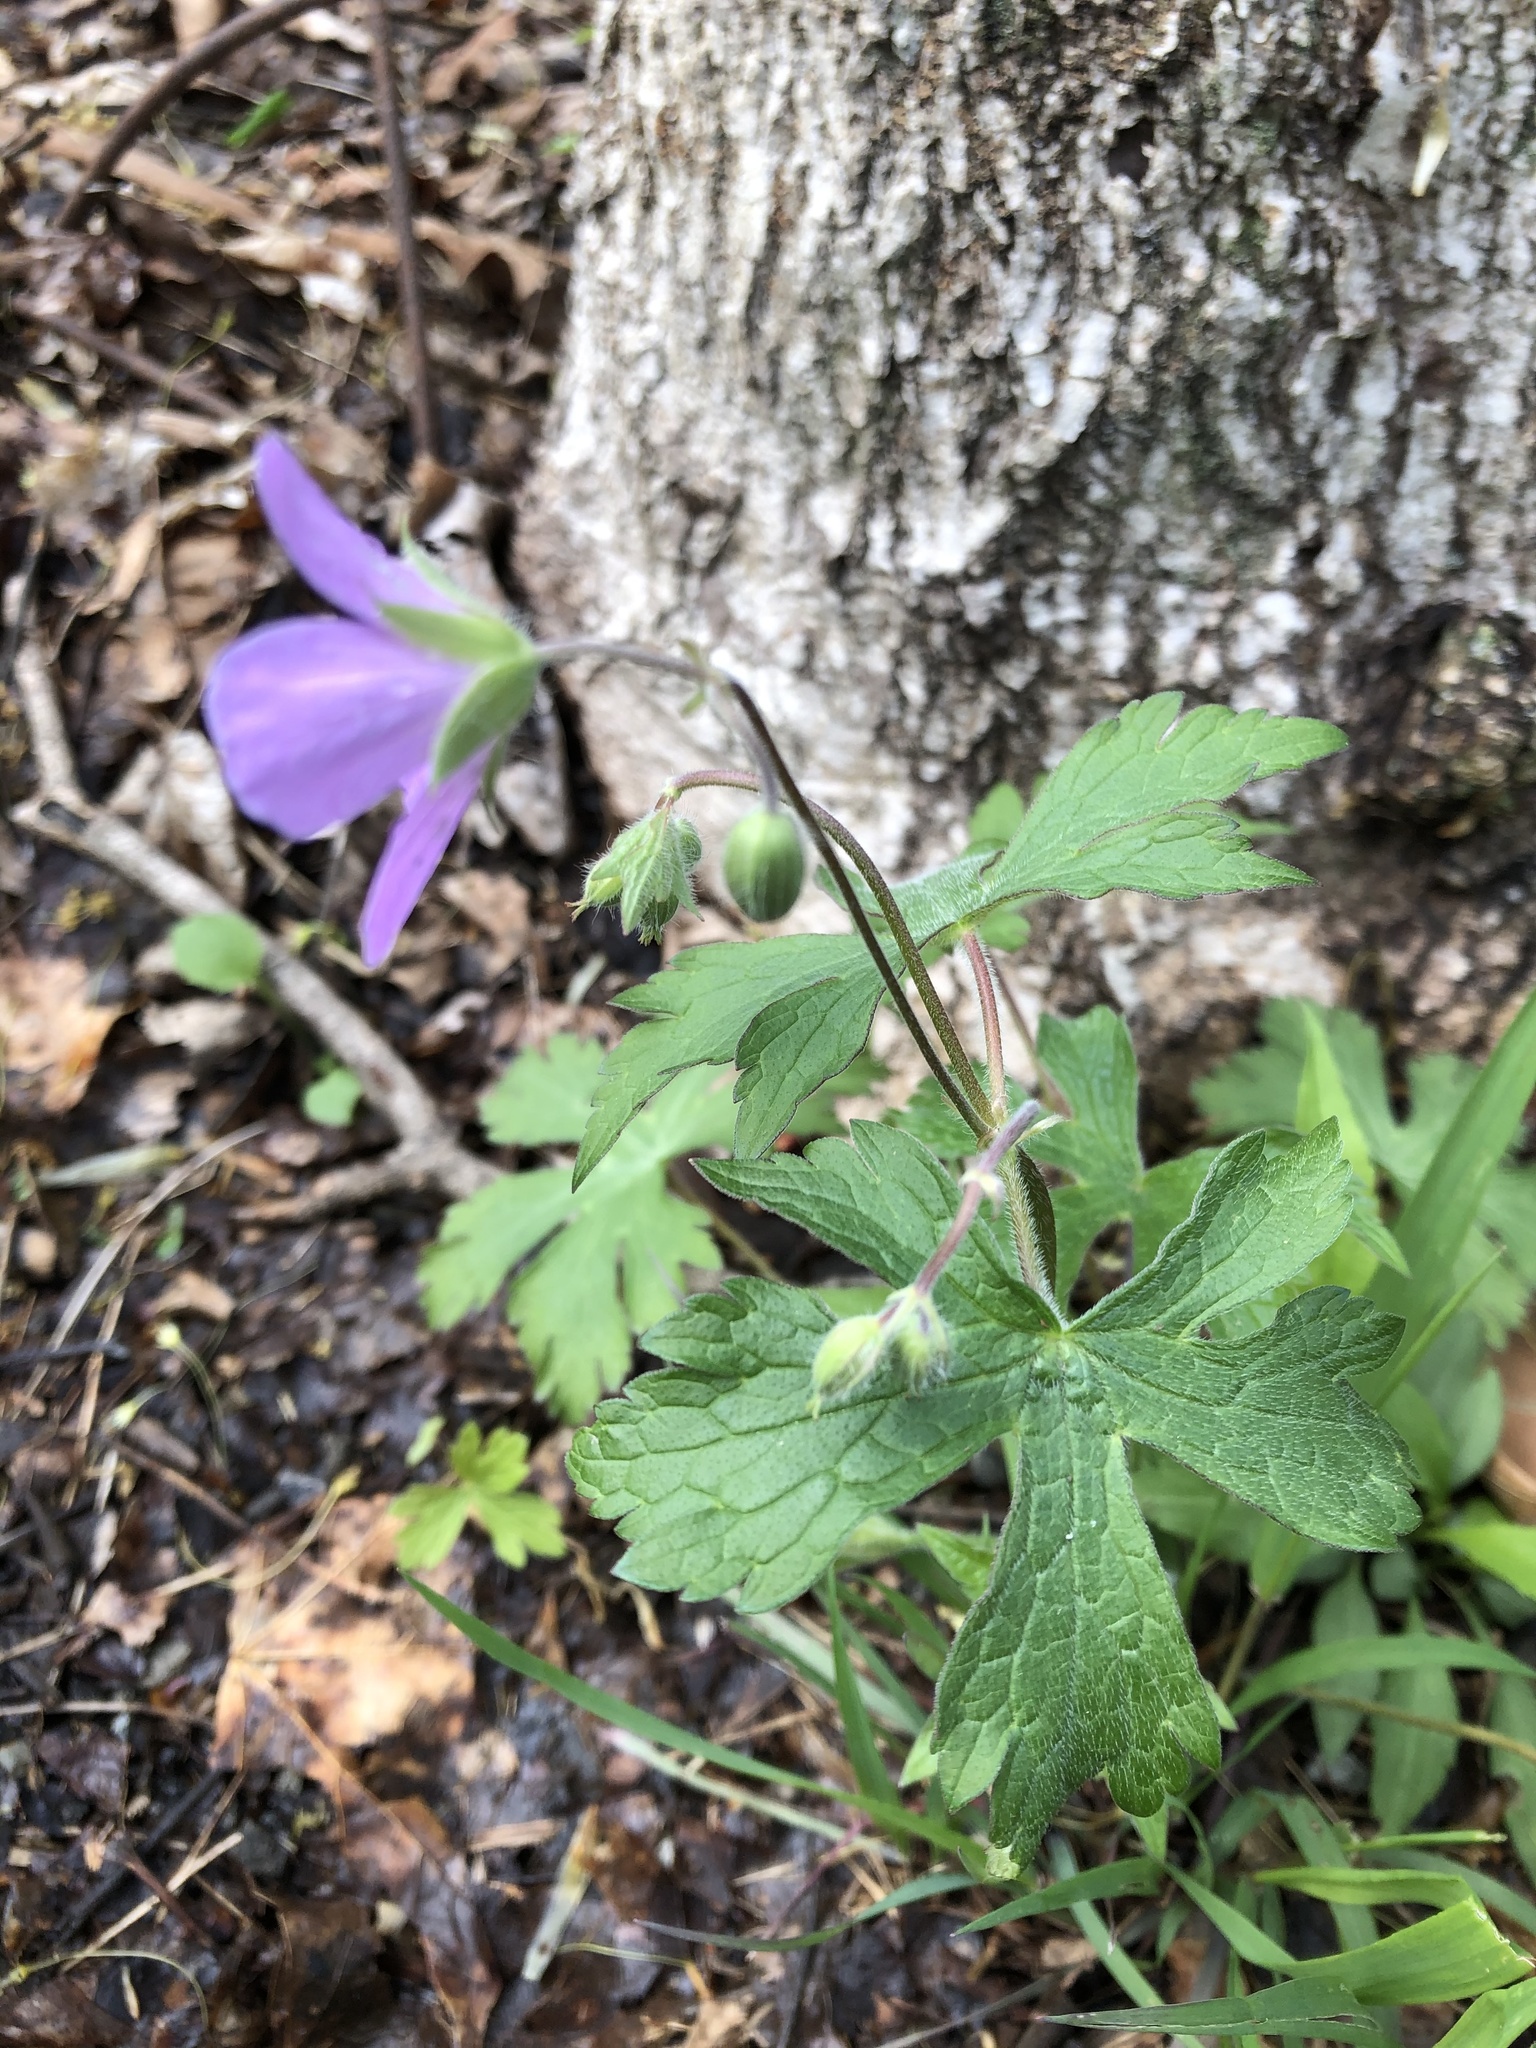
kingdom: Plantae
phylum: Tracheophyta
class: Magnoliopsida
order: Geraniales
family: Geraniaceae
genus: Geranium
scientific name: Geranium maculatum
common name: Spotted geranium
